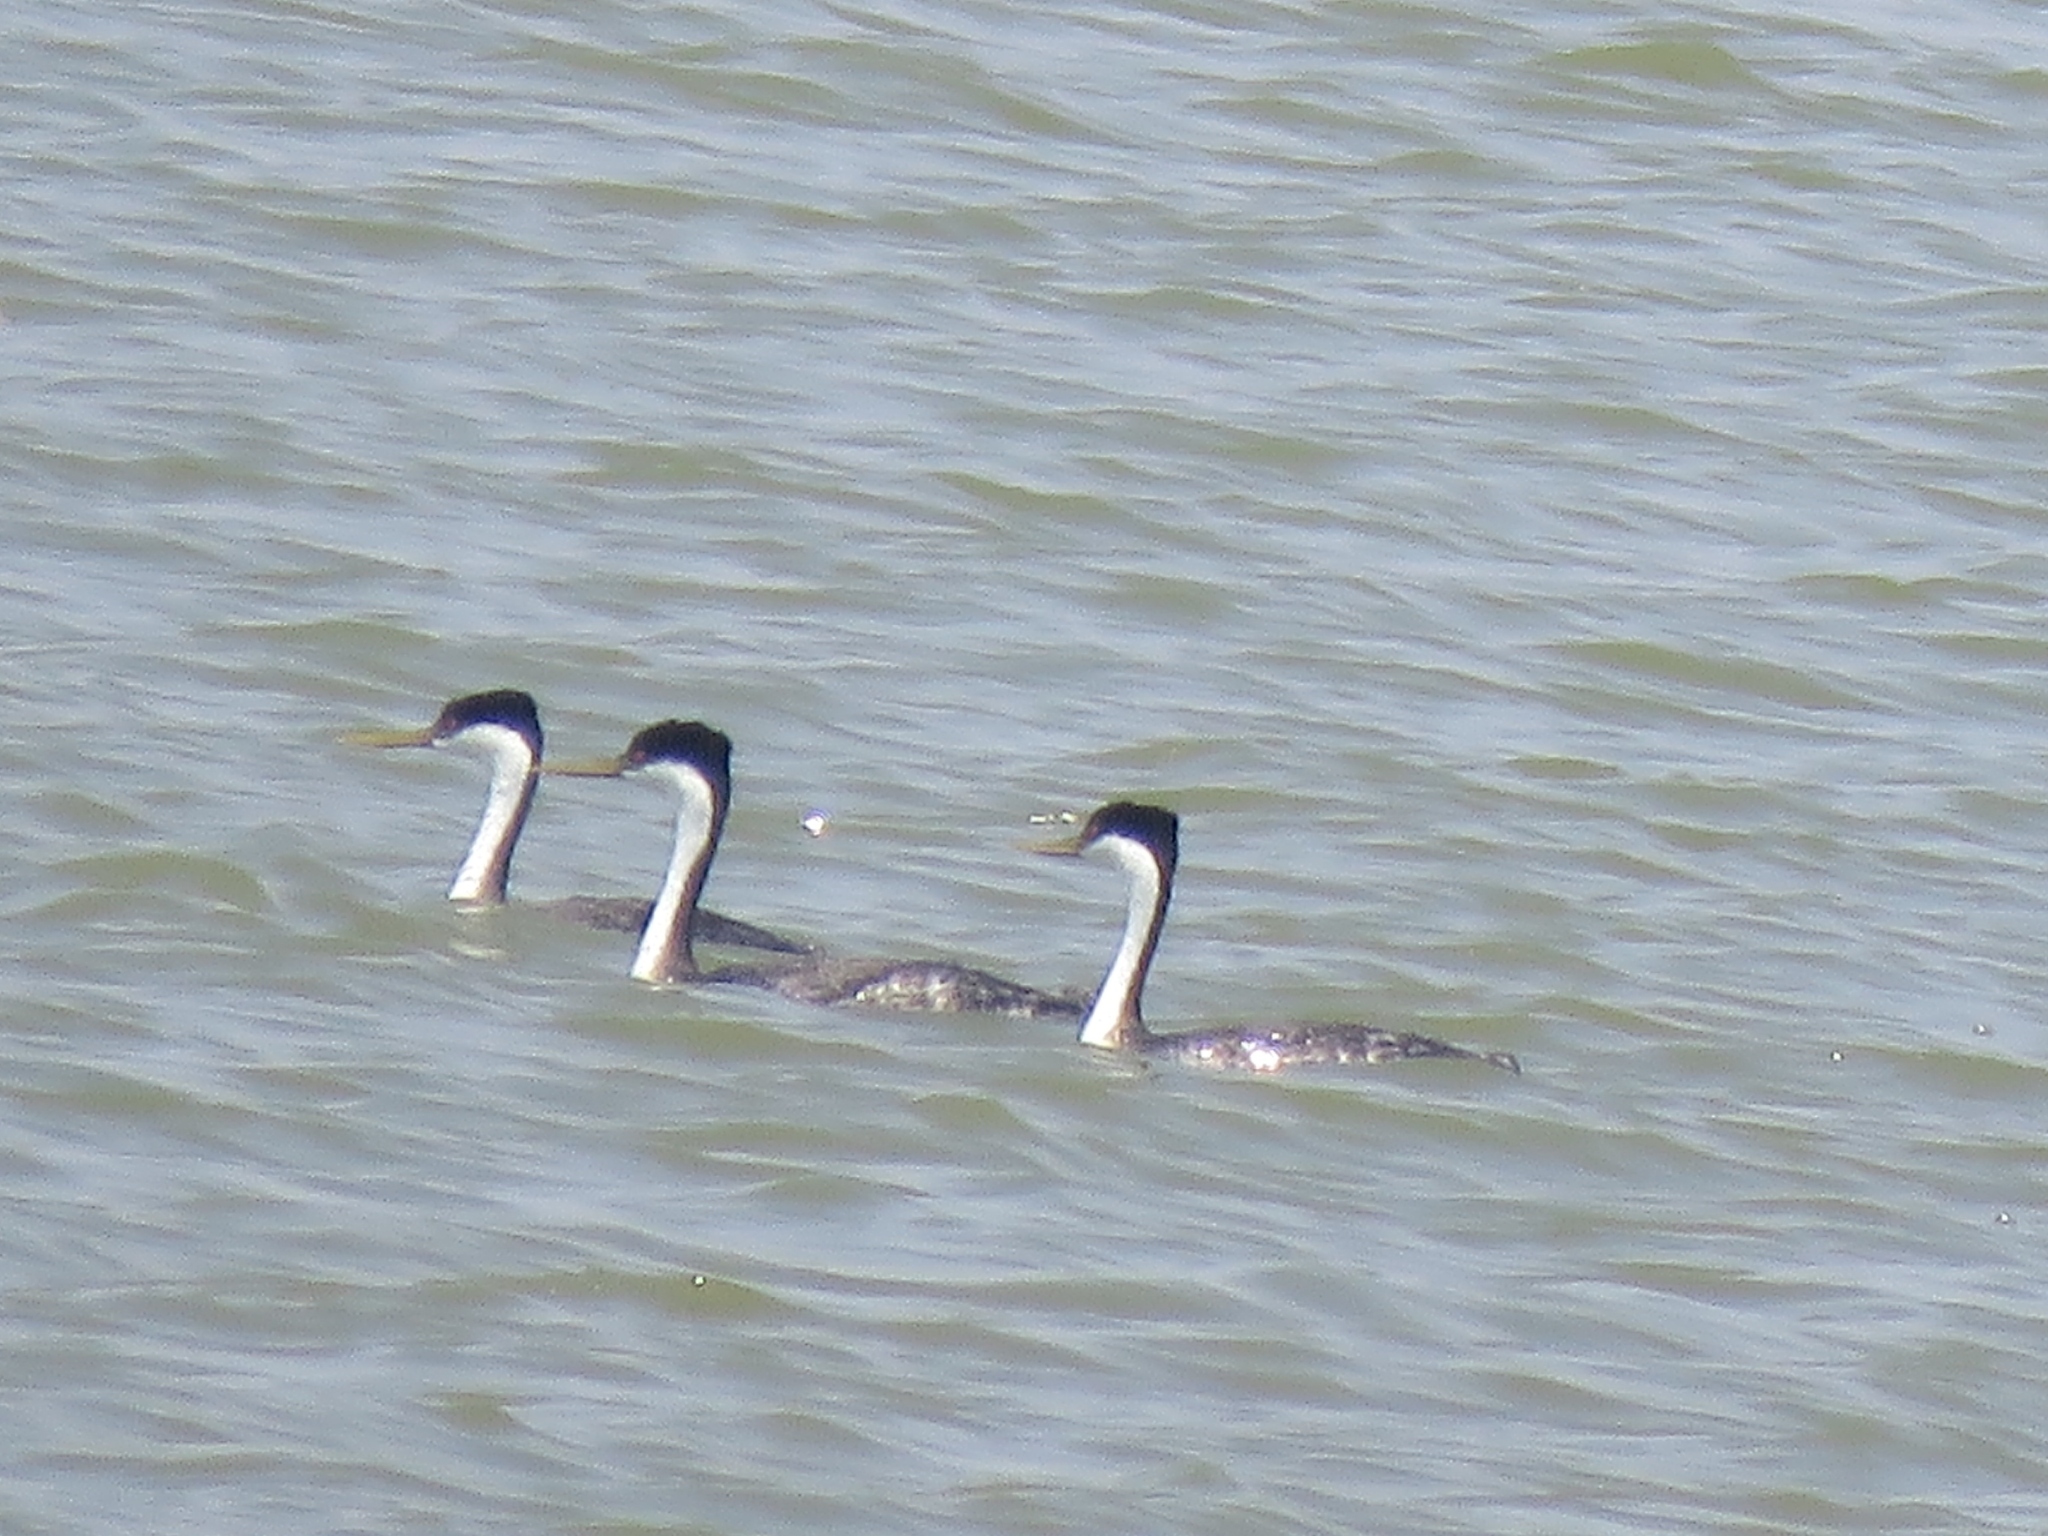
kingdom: Animalia
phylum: Chordata
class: Aves
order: Podicipediformes
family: Podicipedidae
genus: Aechmophorus
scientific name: Aechmophorus occidentalis
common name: Western grebe
